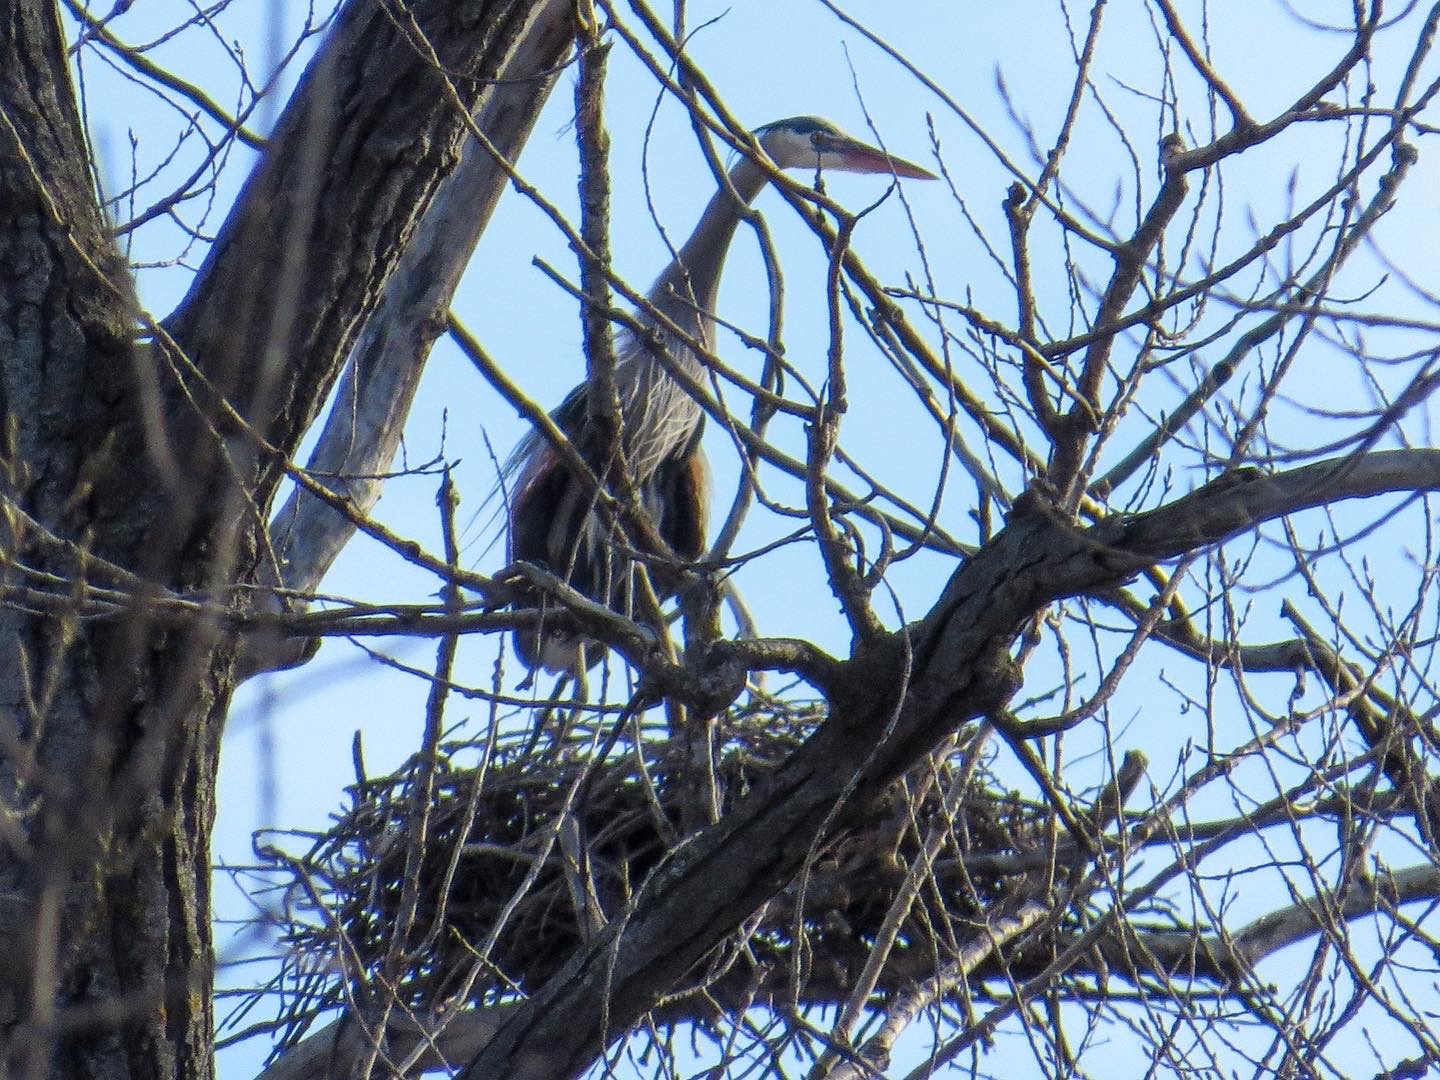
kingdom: Animalia
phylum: Chordata
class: Aves
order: Pelecaniformes
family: Ardeidae
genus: Ardea
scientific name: Ardea herodias
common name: Great blue heron
